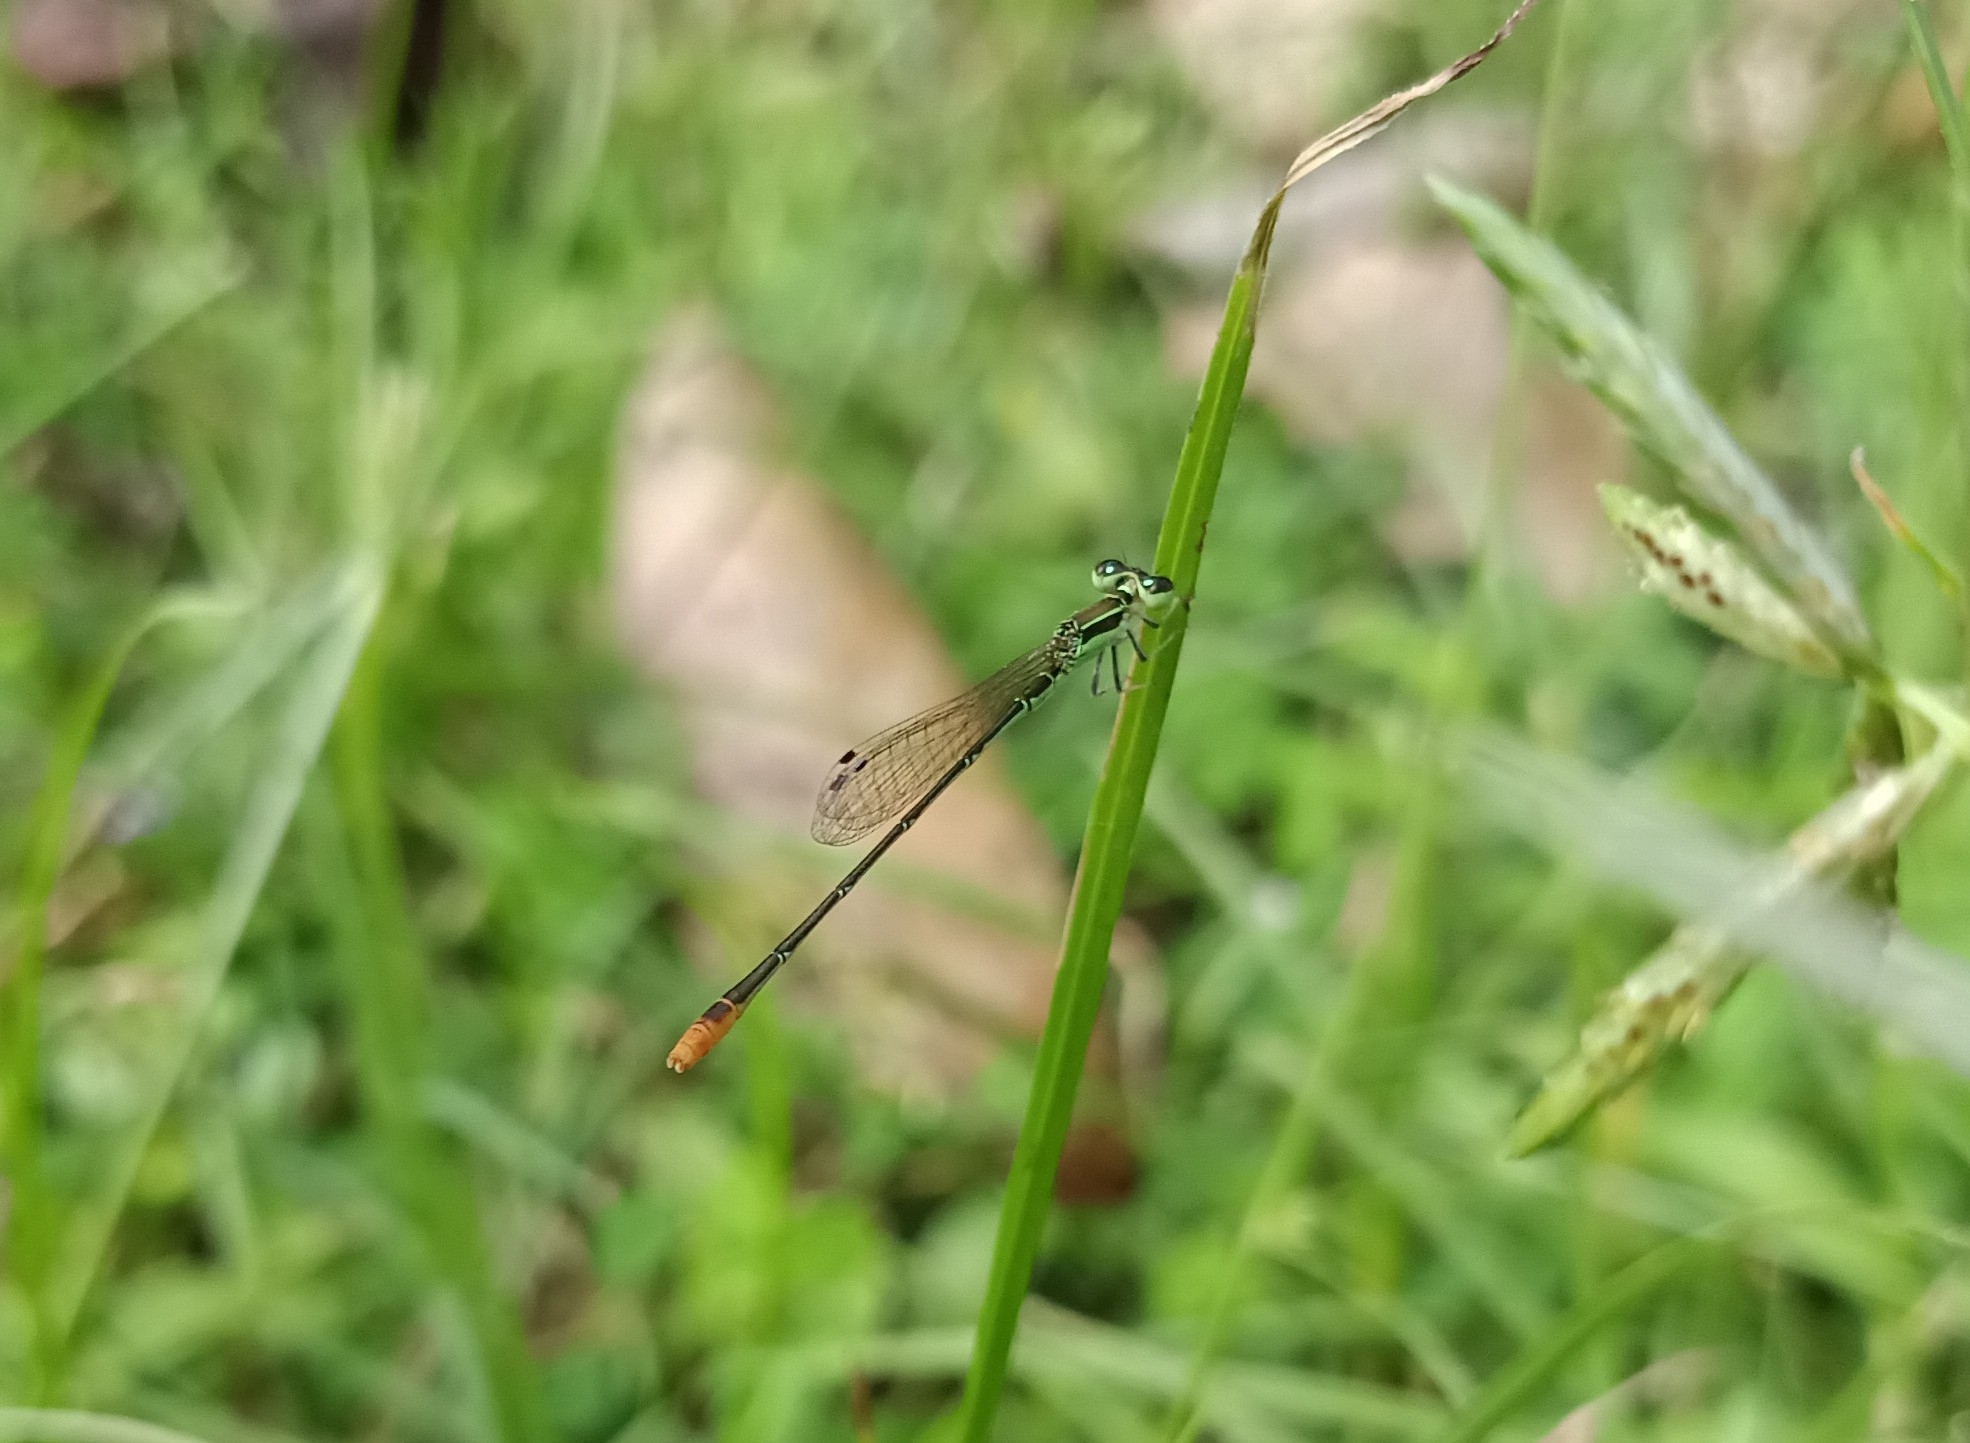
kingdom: Animalia
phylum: Arthropoda
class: Insecta
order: Odonata
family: Coenagrionidae
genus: Agriocnemis
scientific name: Agriocnemis pygmaea
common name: Pygmy wisp
